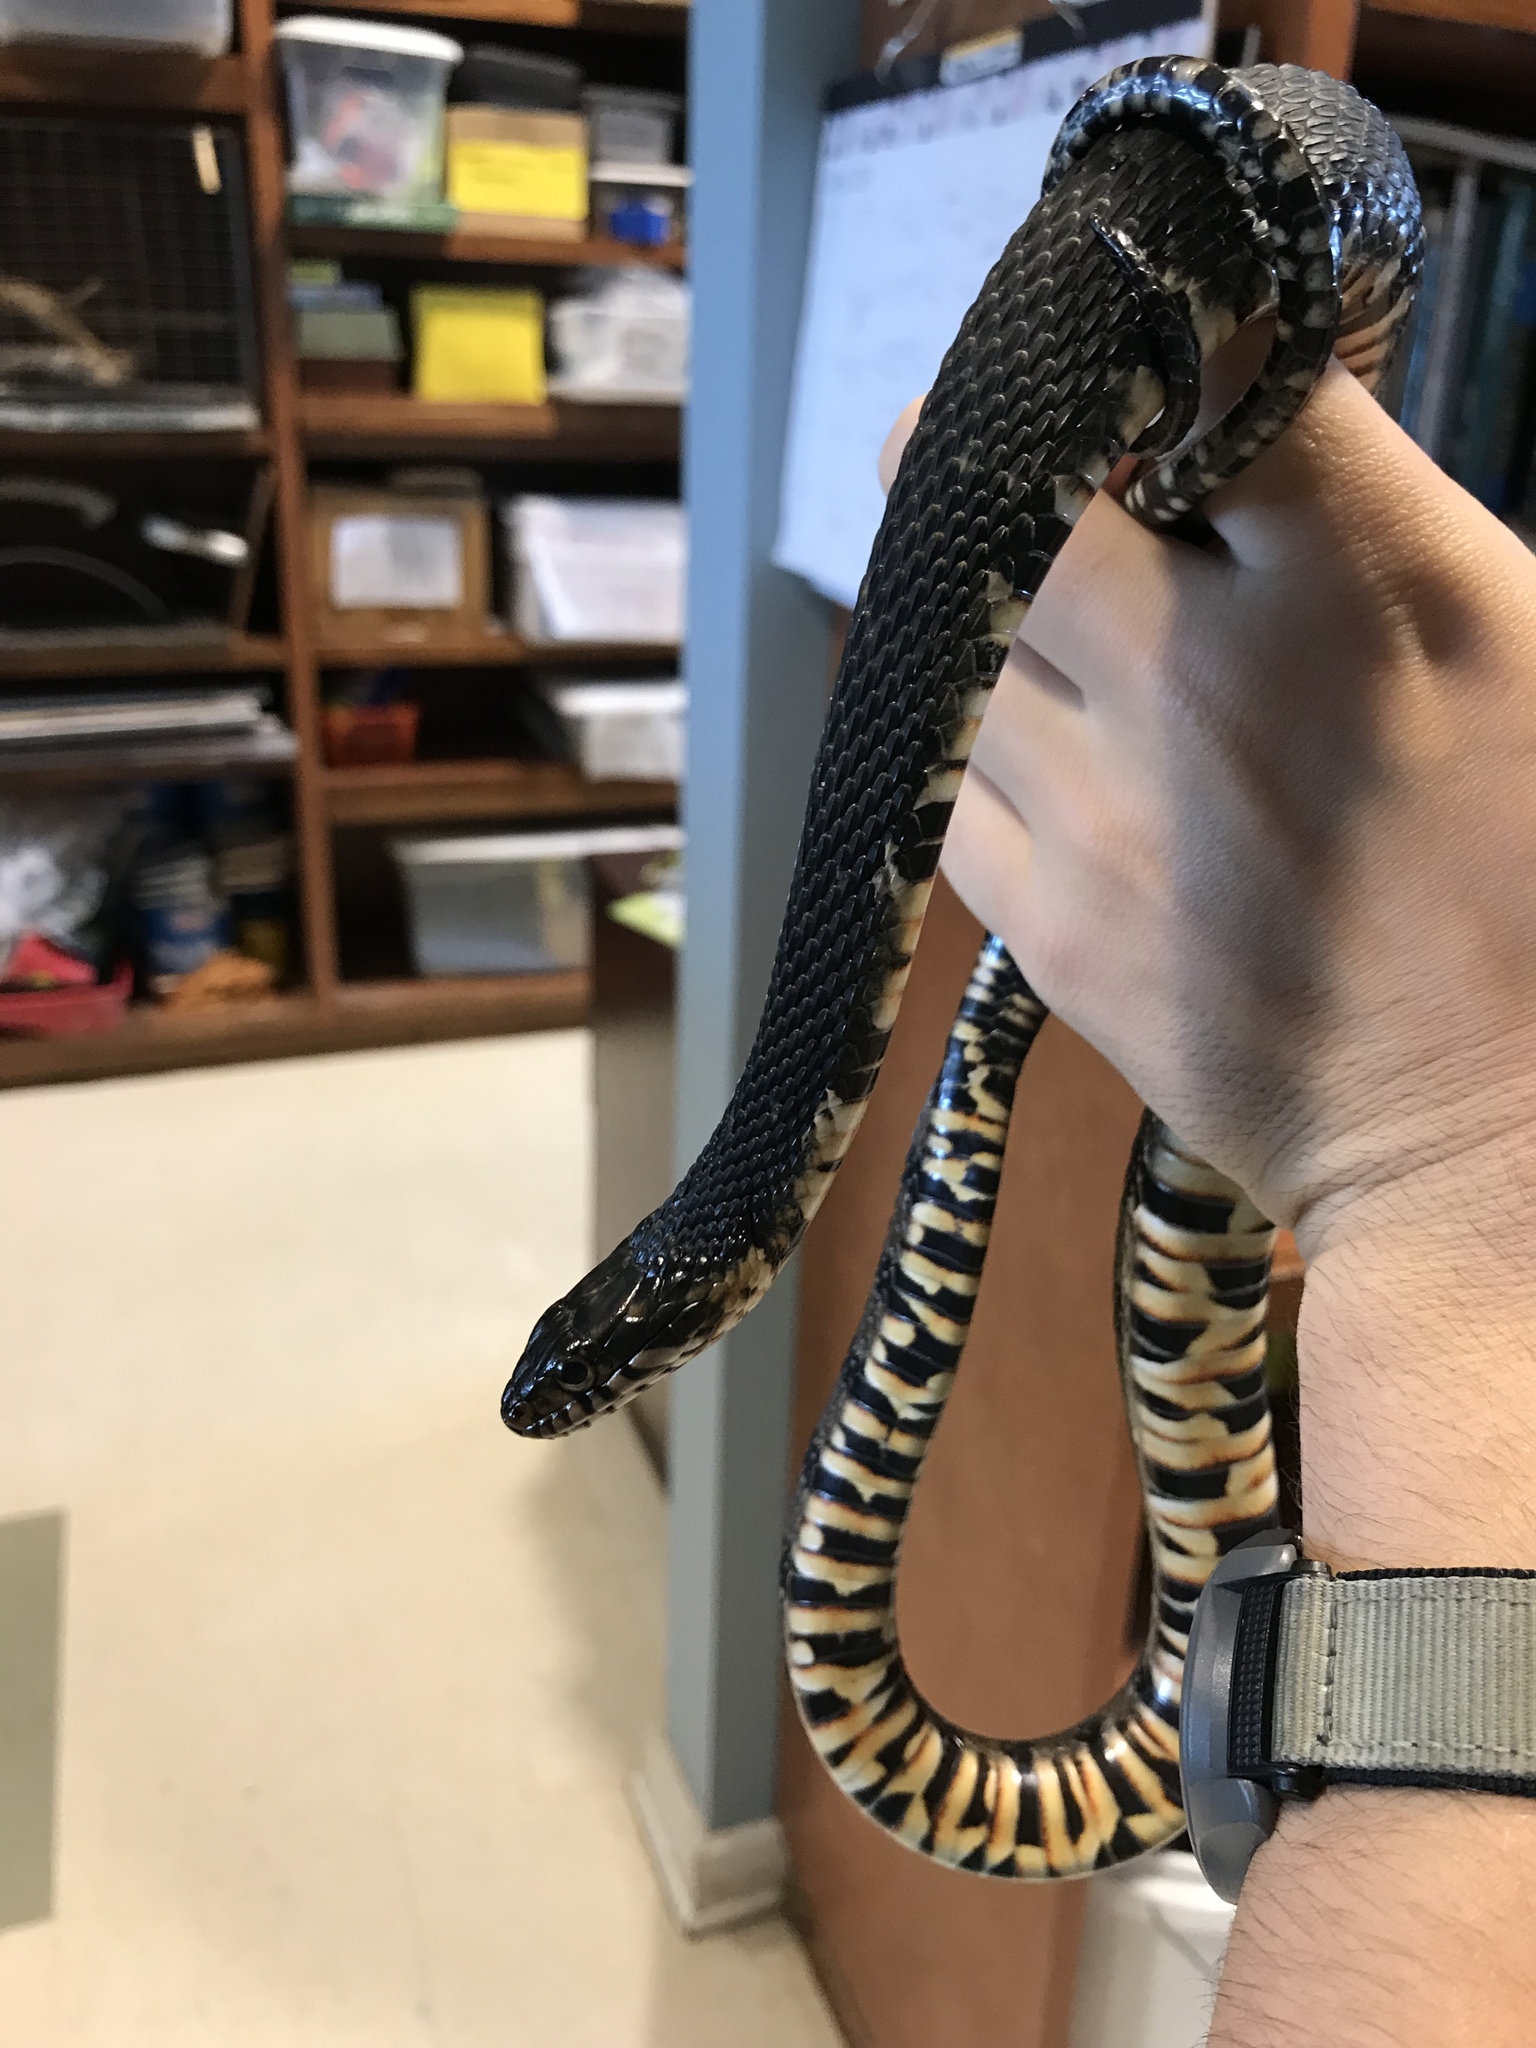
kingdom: Animalia
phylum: Chordata
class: Squamata
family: Colubridae
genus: Nerodia
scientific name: Nerodia fasciata
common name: Southern water snake
